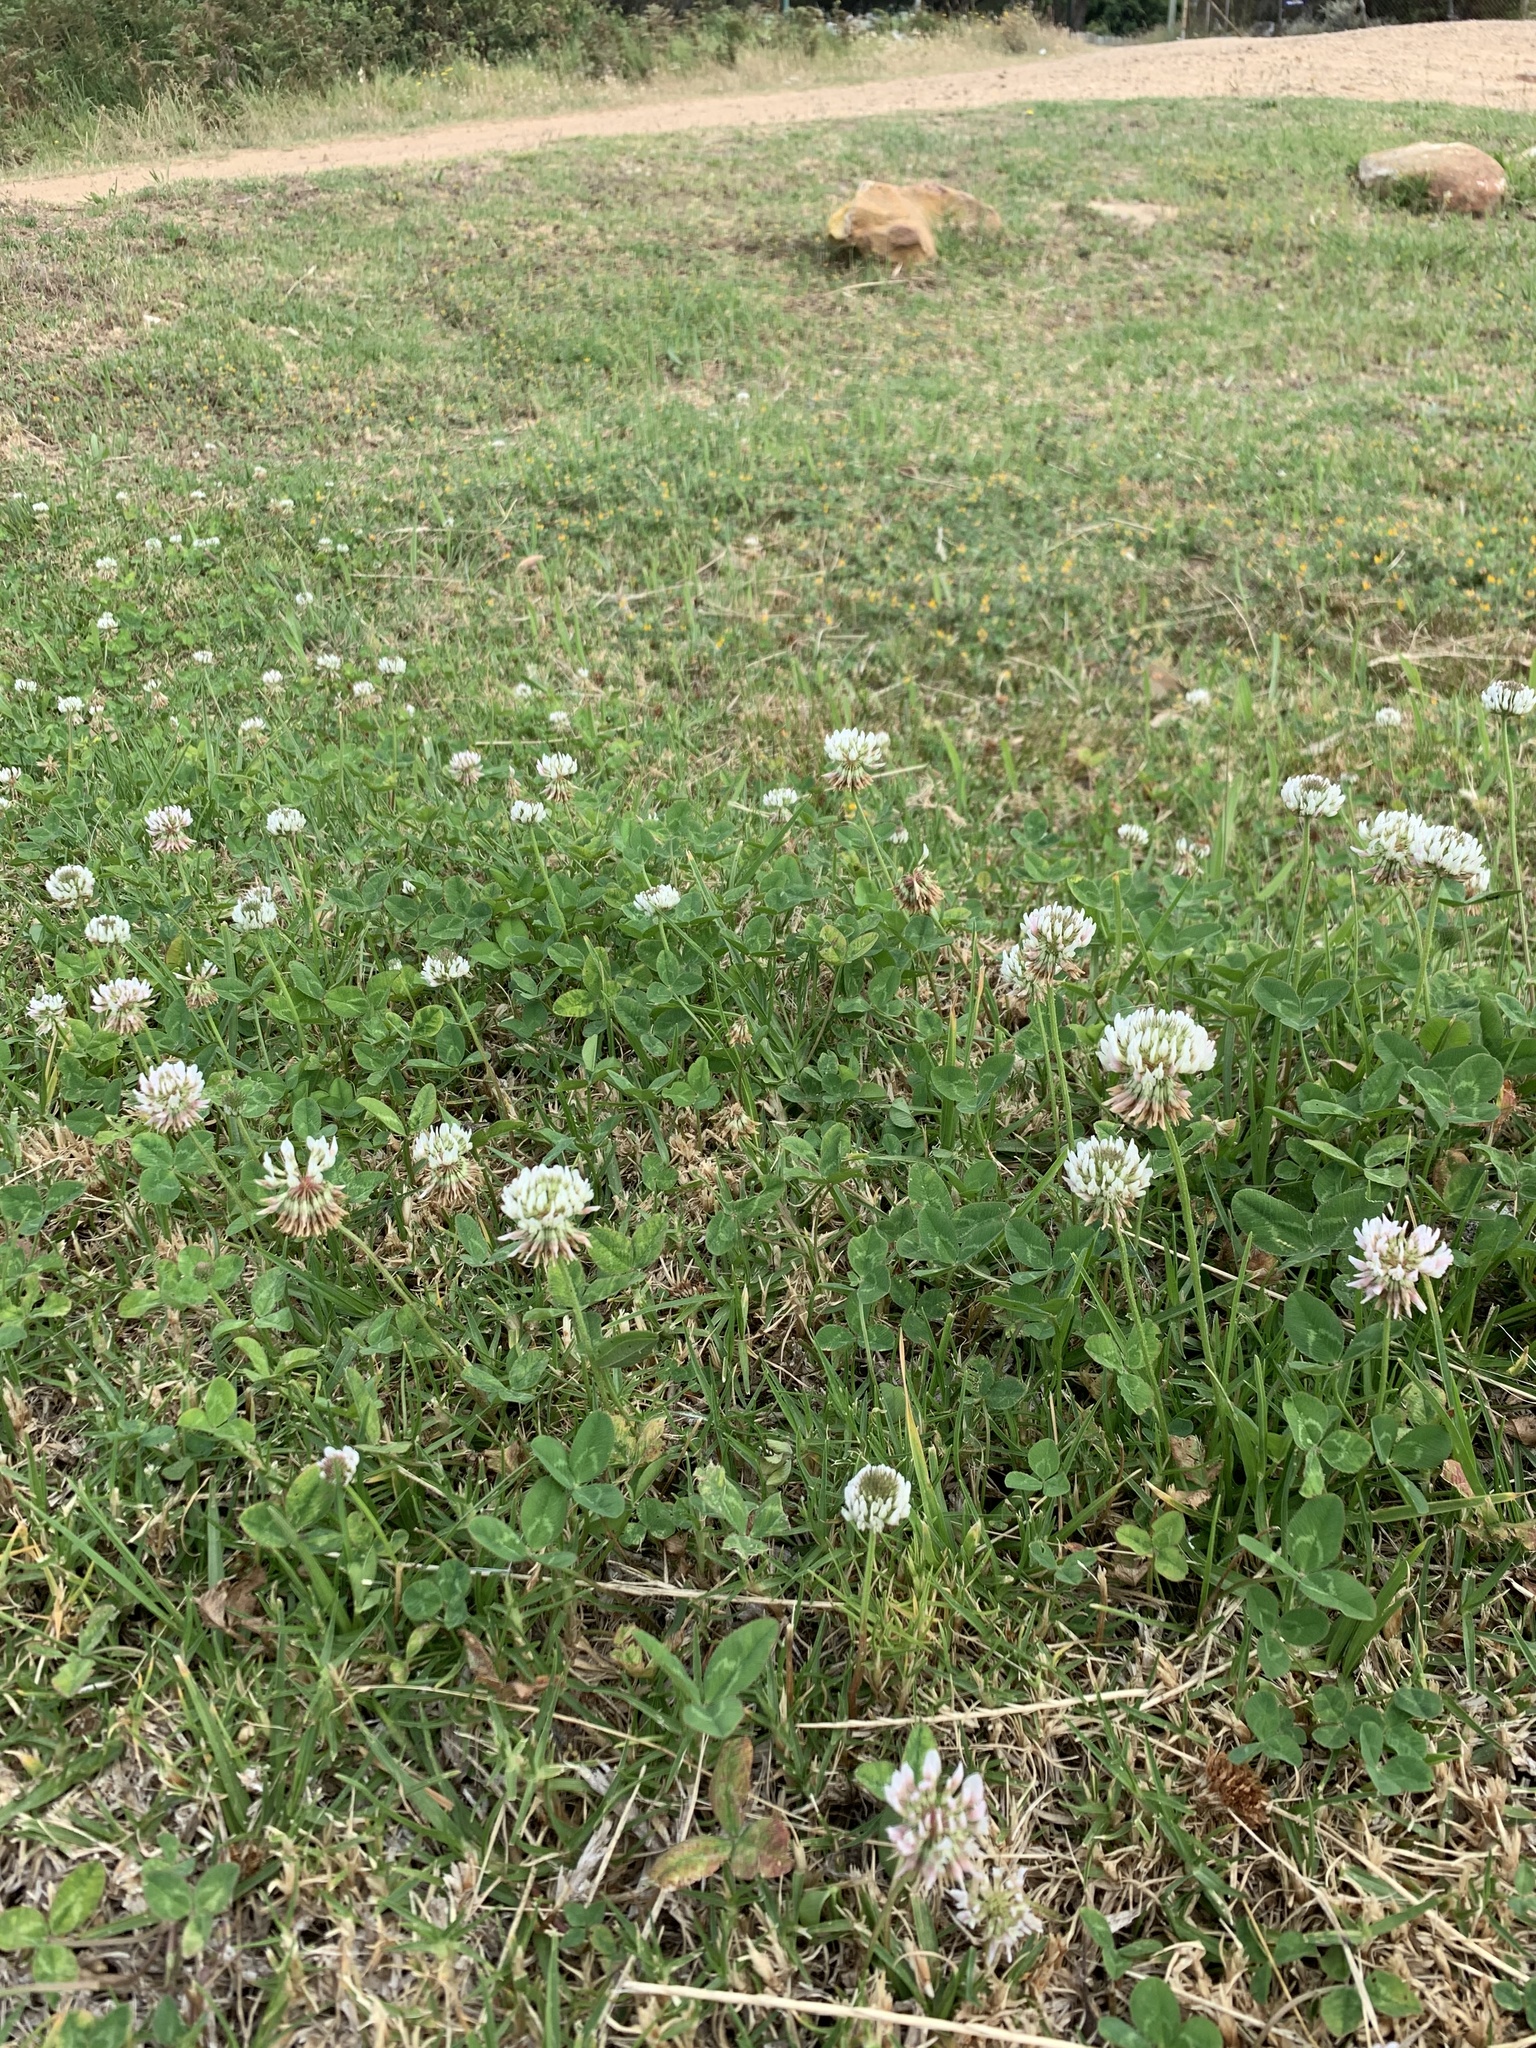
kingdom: Plantae
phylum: Tracheophyta
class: Magnoliopsida
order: Fabales
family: Fabaceae
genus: Trifolium
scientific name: Trifolium repens
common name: White clover
